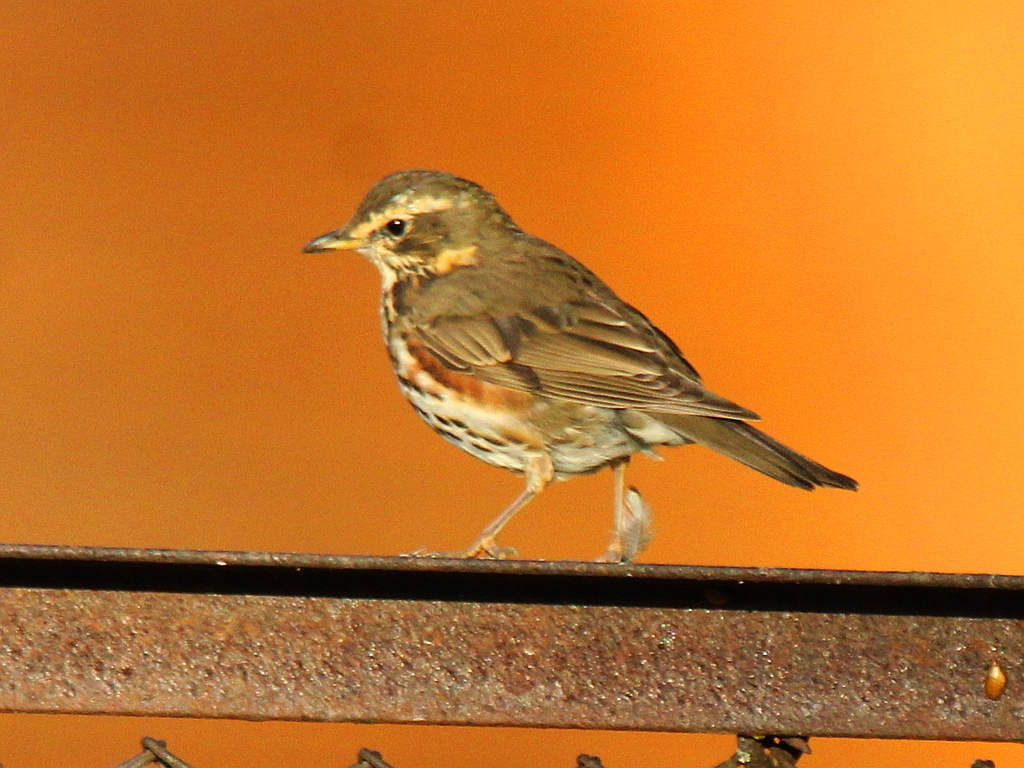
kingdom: Animalia
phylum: Chordata
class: Aves
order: Passeriformes
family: Turdidae
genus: Turdus
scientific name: Turdus iliacus
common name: Redwing
